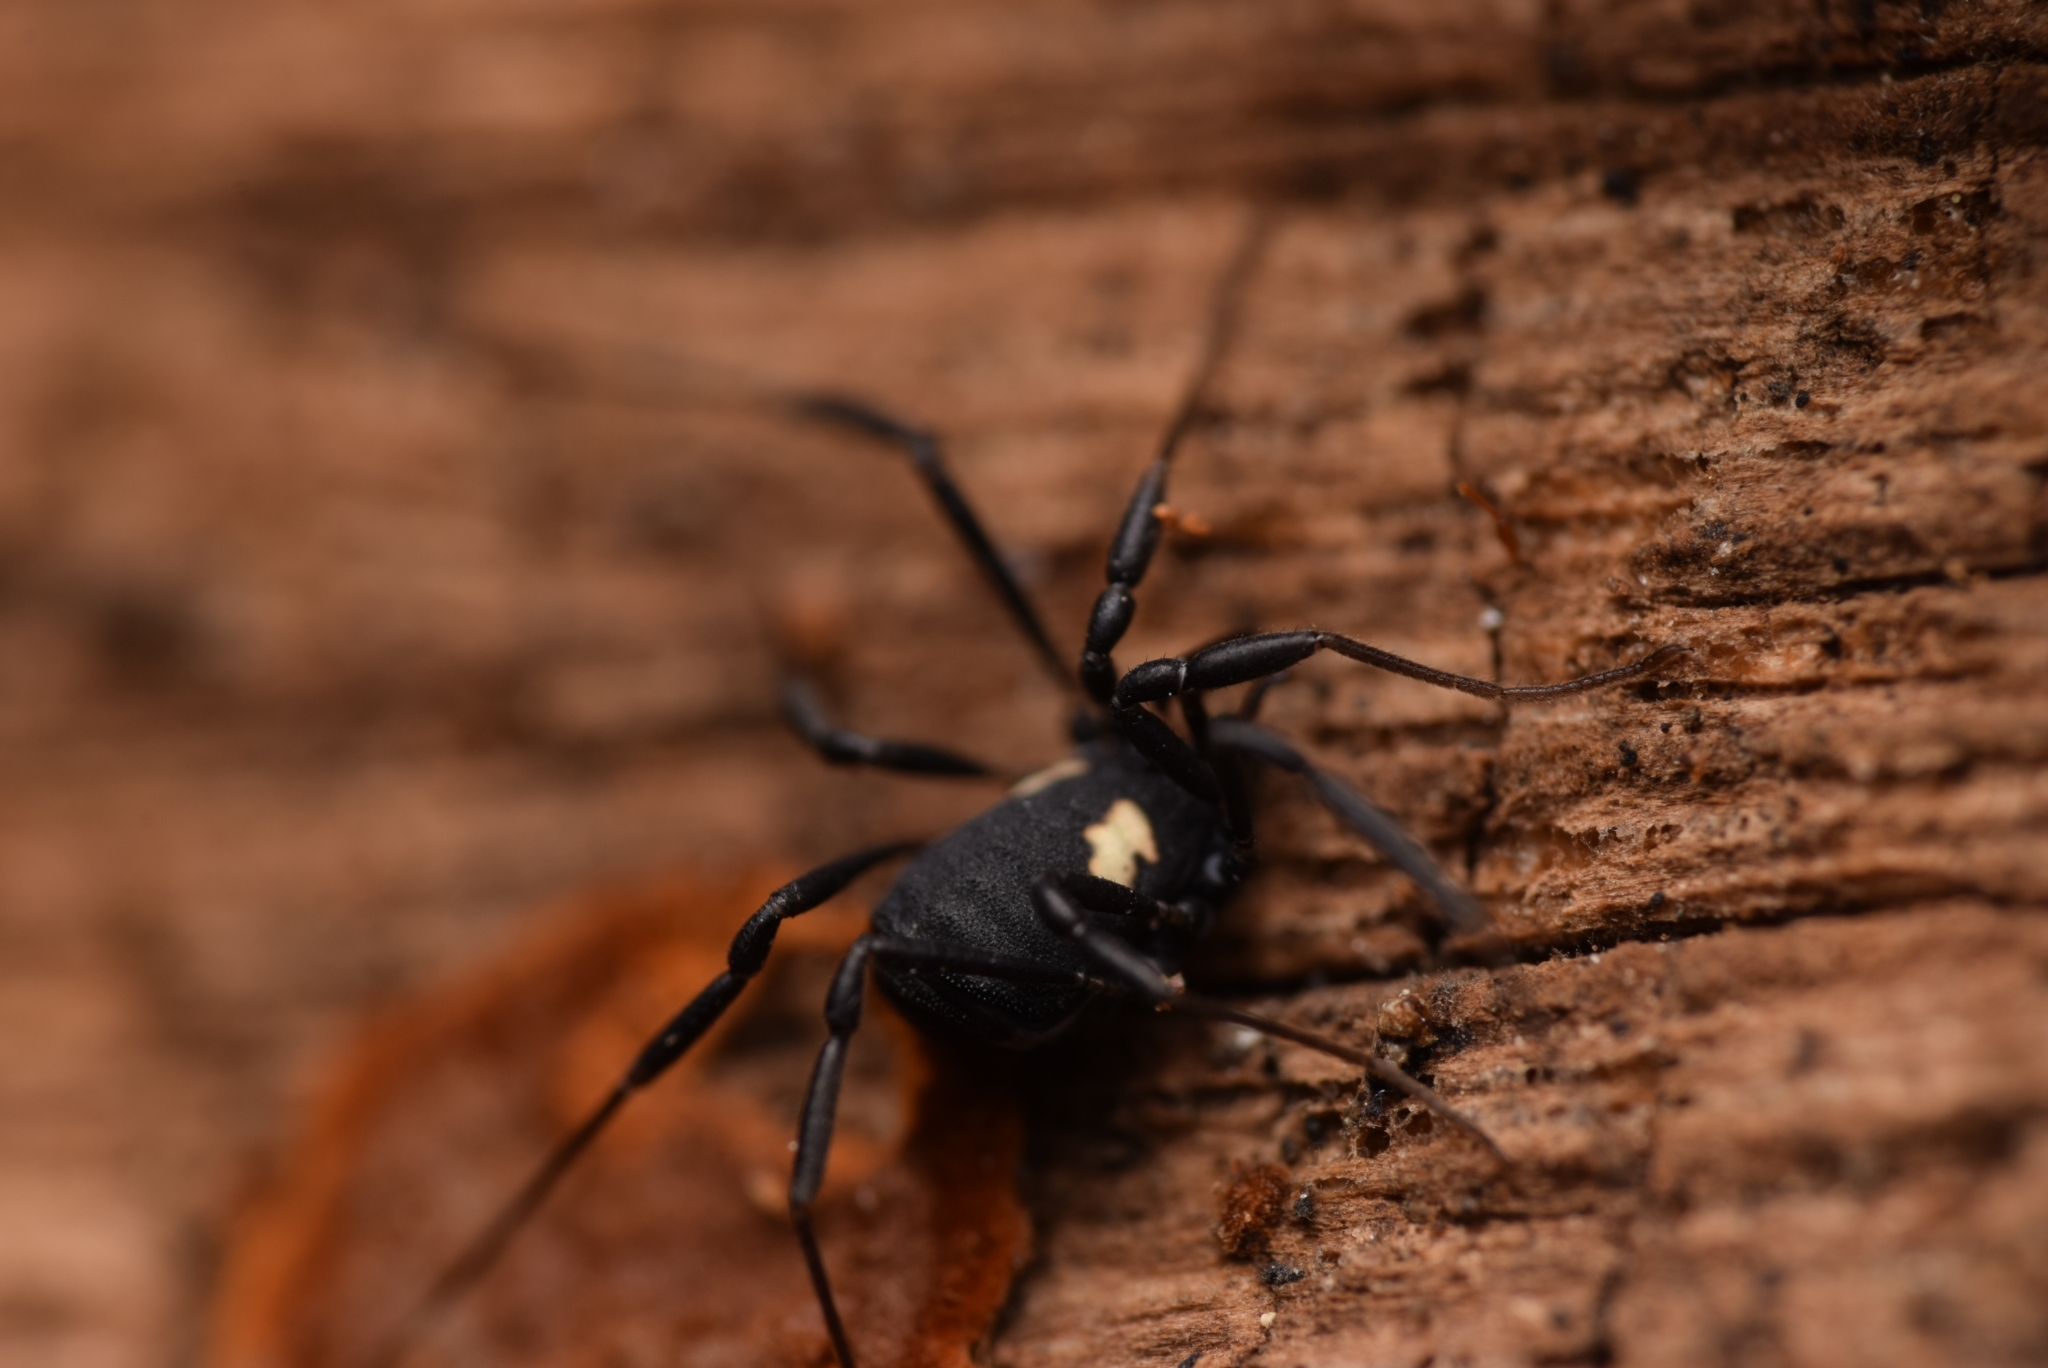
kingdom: Animalia
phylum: Arthropoda
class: Arachnida
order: Opiliones
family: Nemastomatidae
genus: Nemastoma
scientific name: Nemastoma bimaculatum
